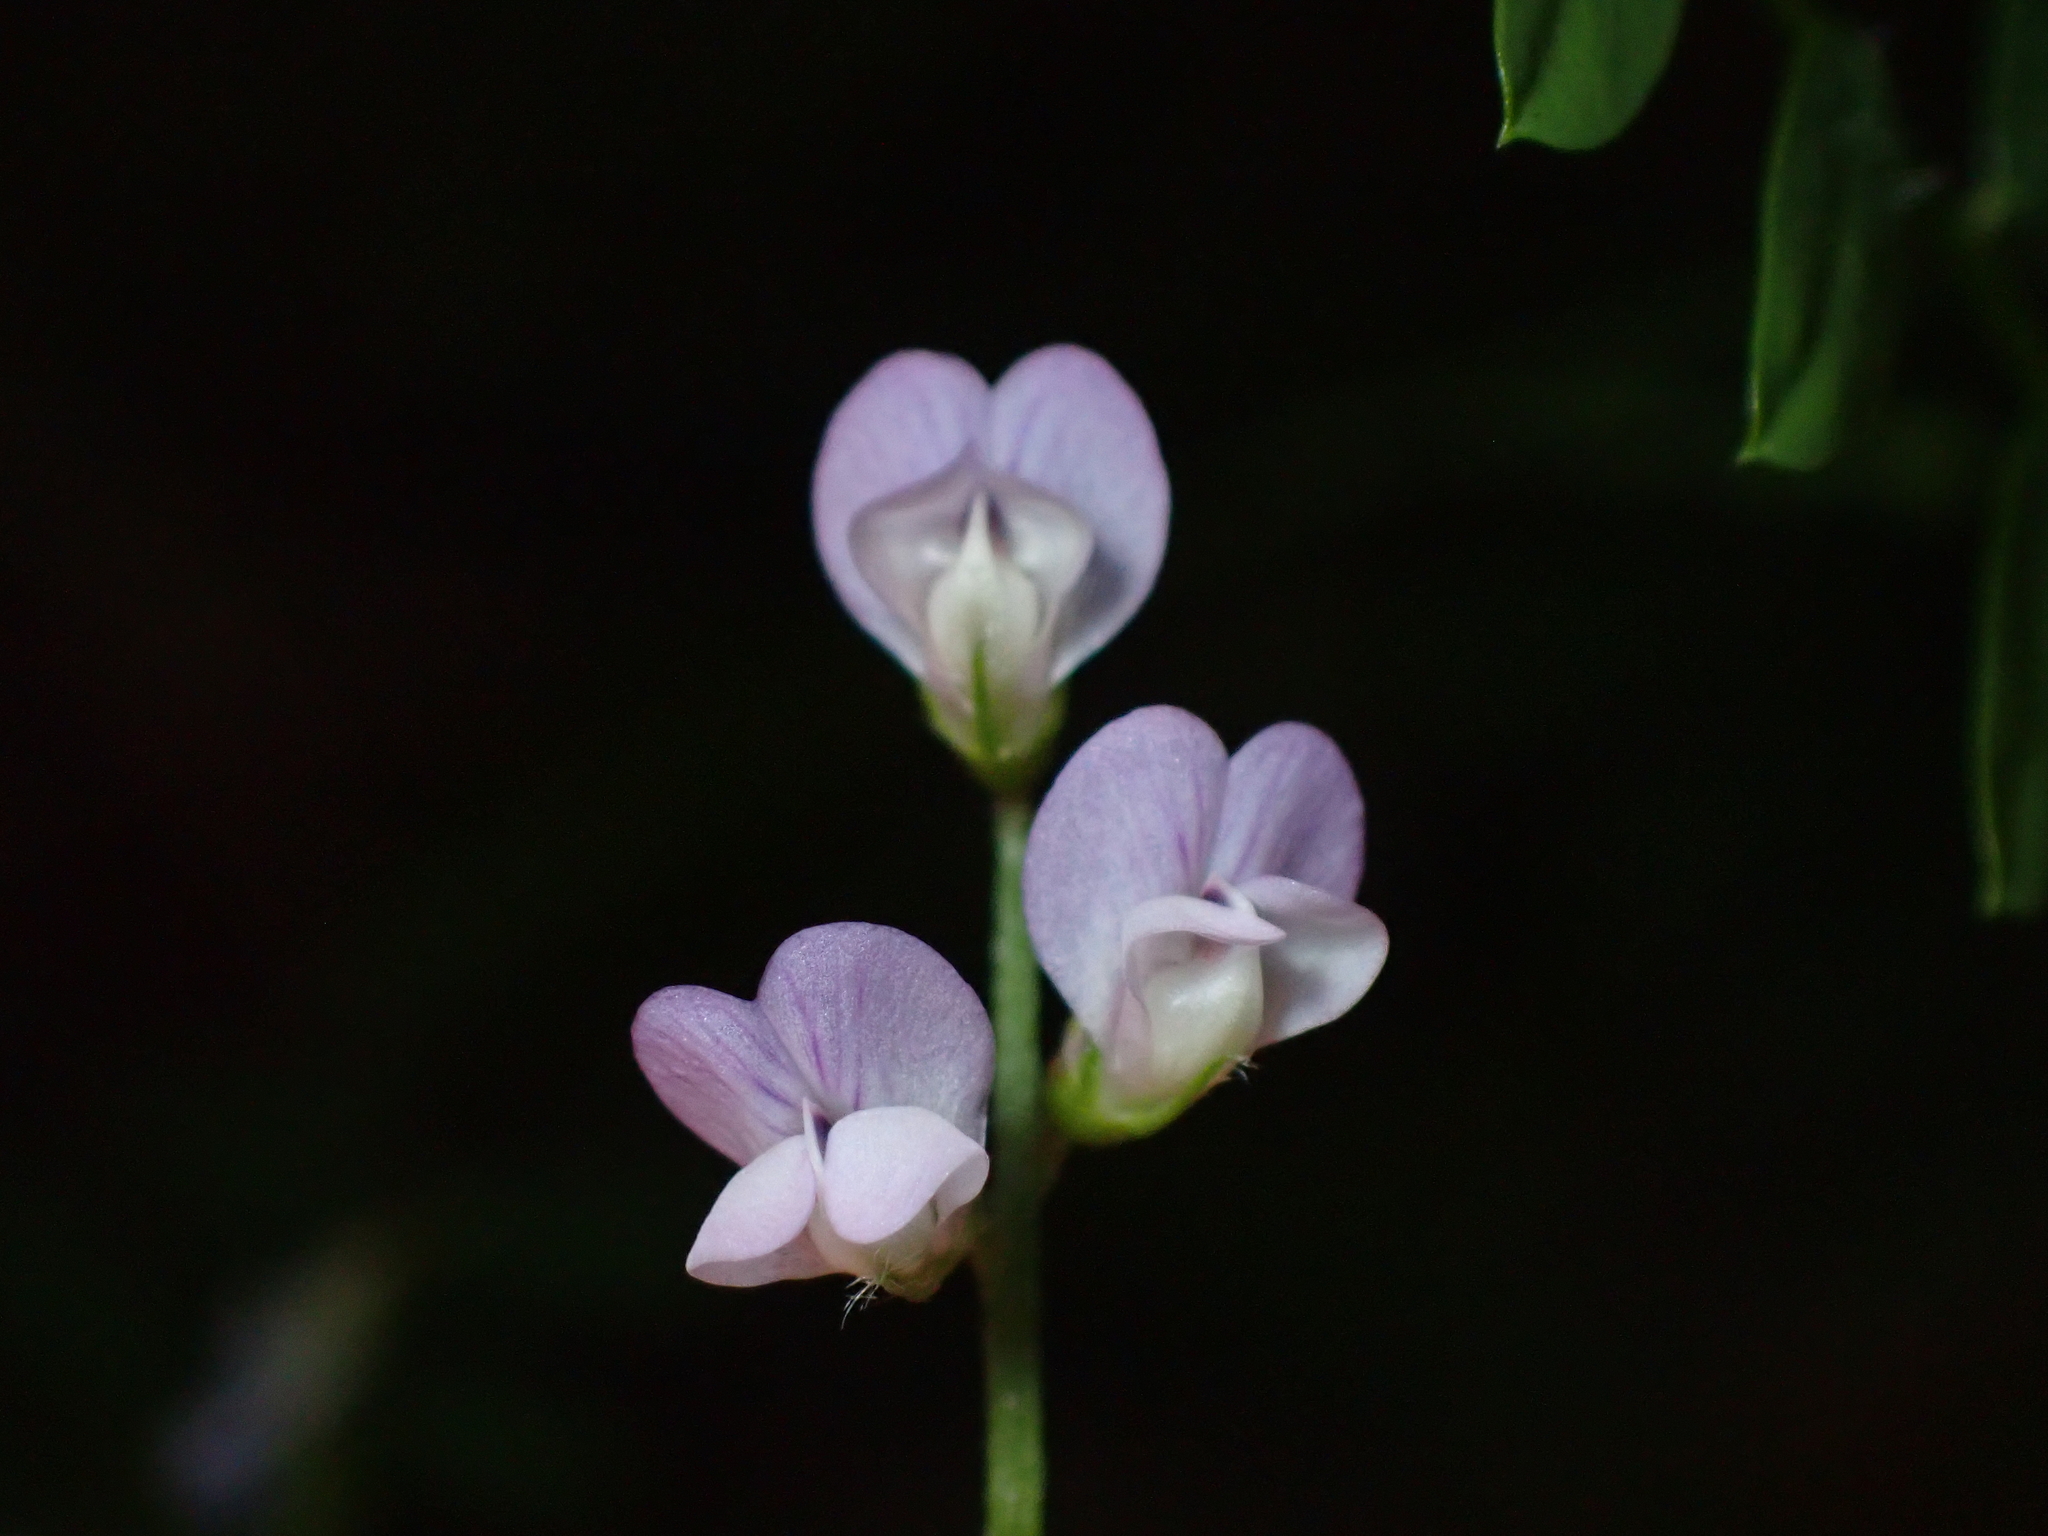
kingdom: Plantae
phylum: Tracheophyta
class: Magnoliopsida
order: Fabales
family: Fabaceae
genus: Vicia
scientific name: Vicia disperma
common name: European vetch
